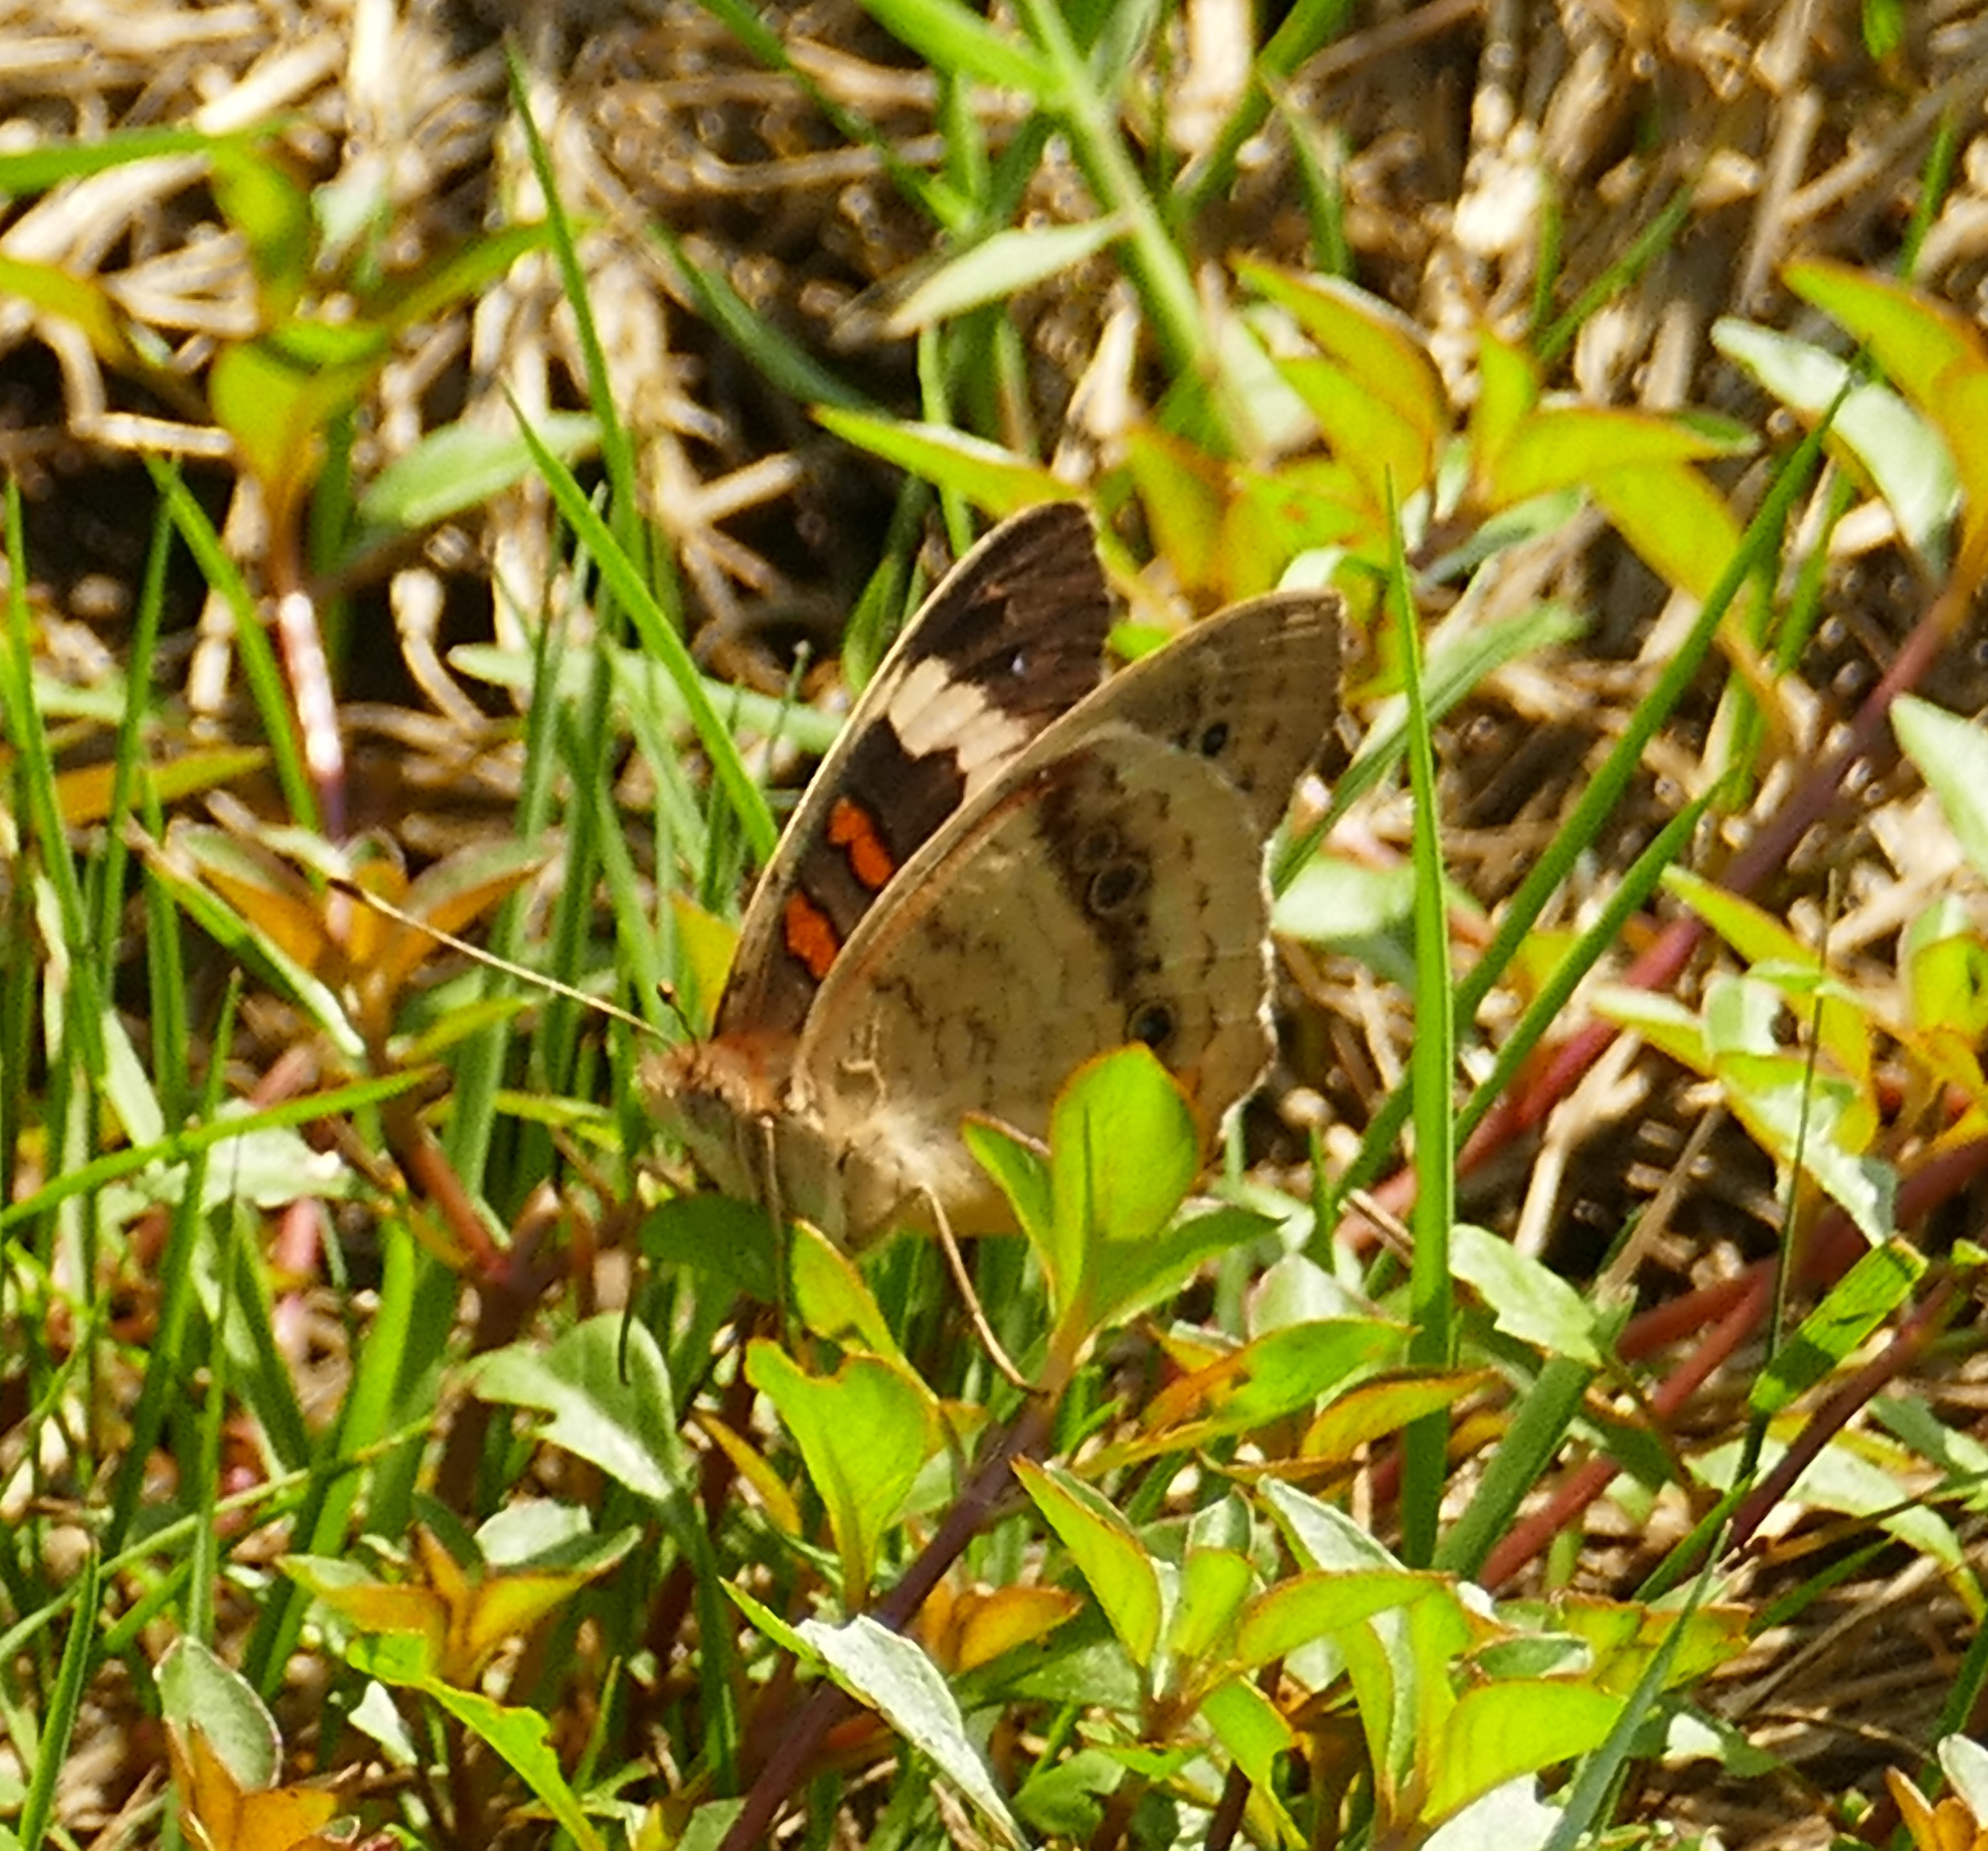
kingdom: Animalia
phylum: Arthropoda
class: Insecta
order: Lepidoptera
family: Nymphalidae
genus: Junonia
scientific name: Junonia coenia
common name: Common buckeye
